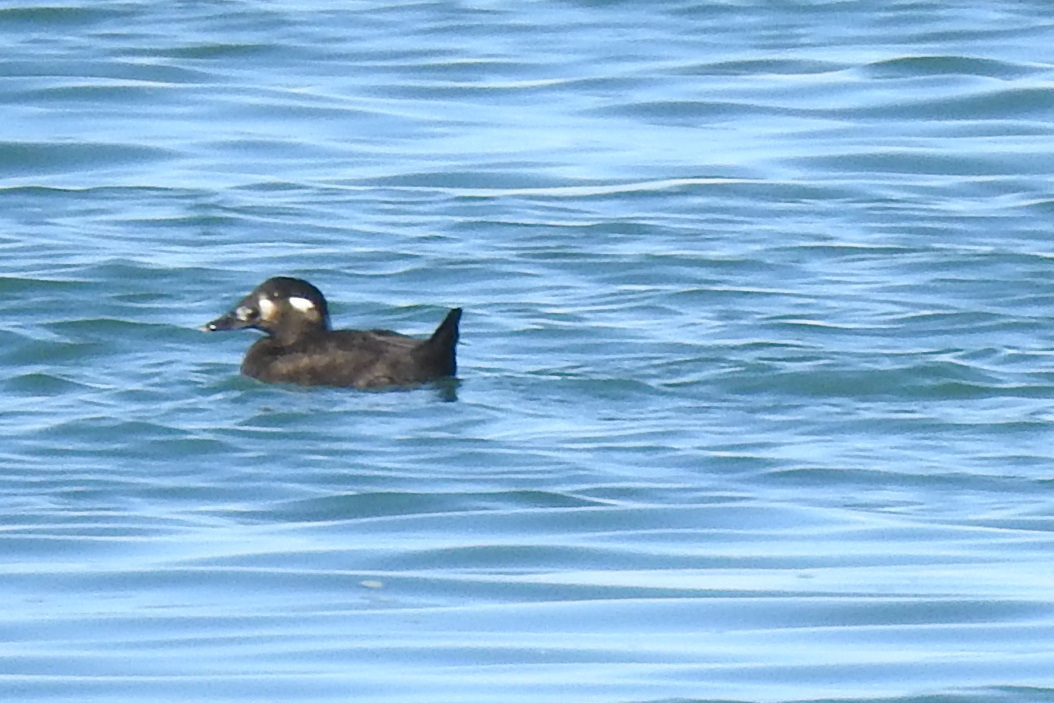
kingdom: Animalia
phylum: Chordata
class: Aves
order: Anseriformes
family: Anatidae
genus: Melanitta
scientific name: Melanitta perspicillata
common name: Surf scoter
